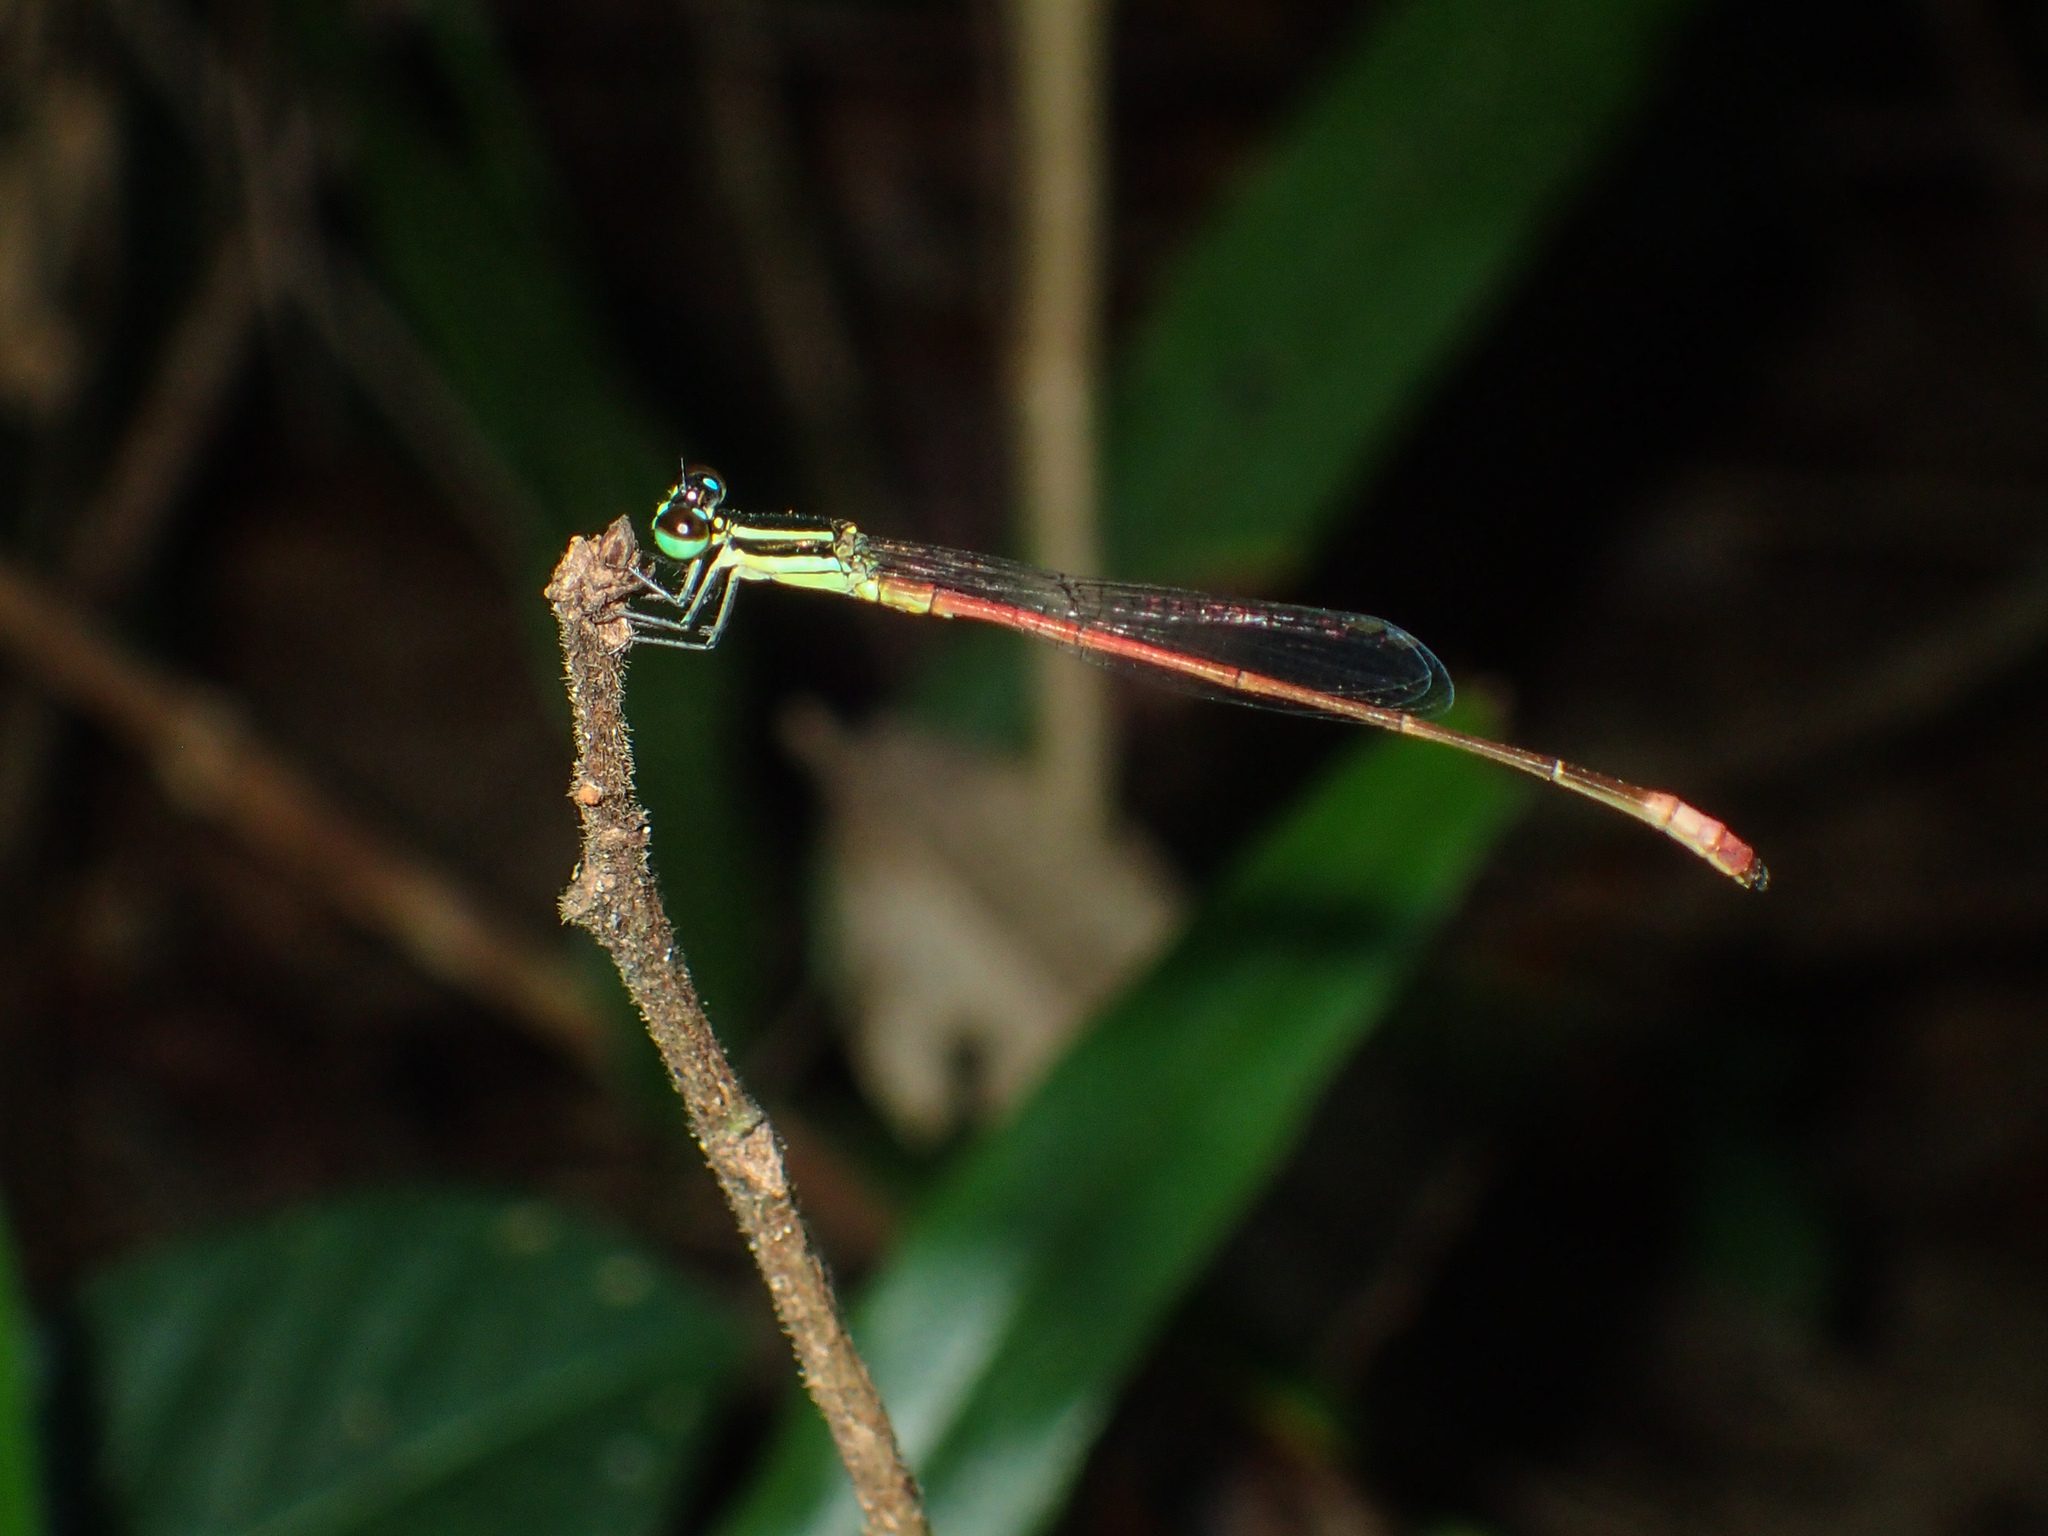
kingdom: Animalia
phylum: Arthropoda
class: Insecta
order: Odonata
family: Coenagrionidae
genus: Argiocnemis
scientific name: Argiocnemis rubescens
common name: Red-tipped shadefly
